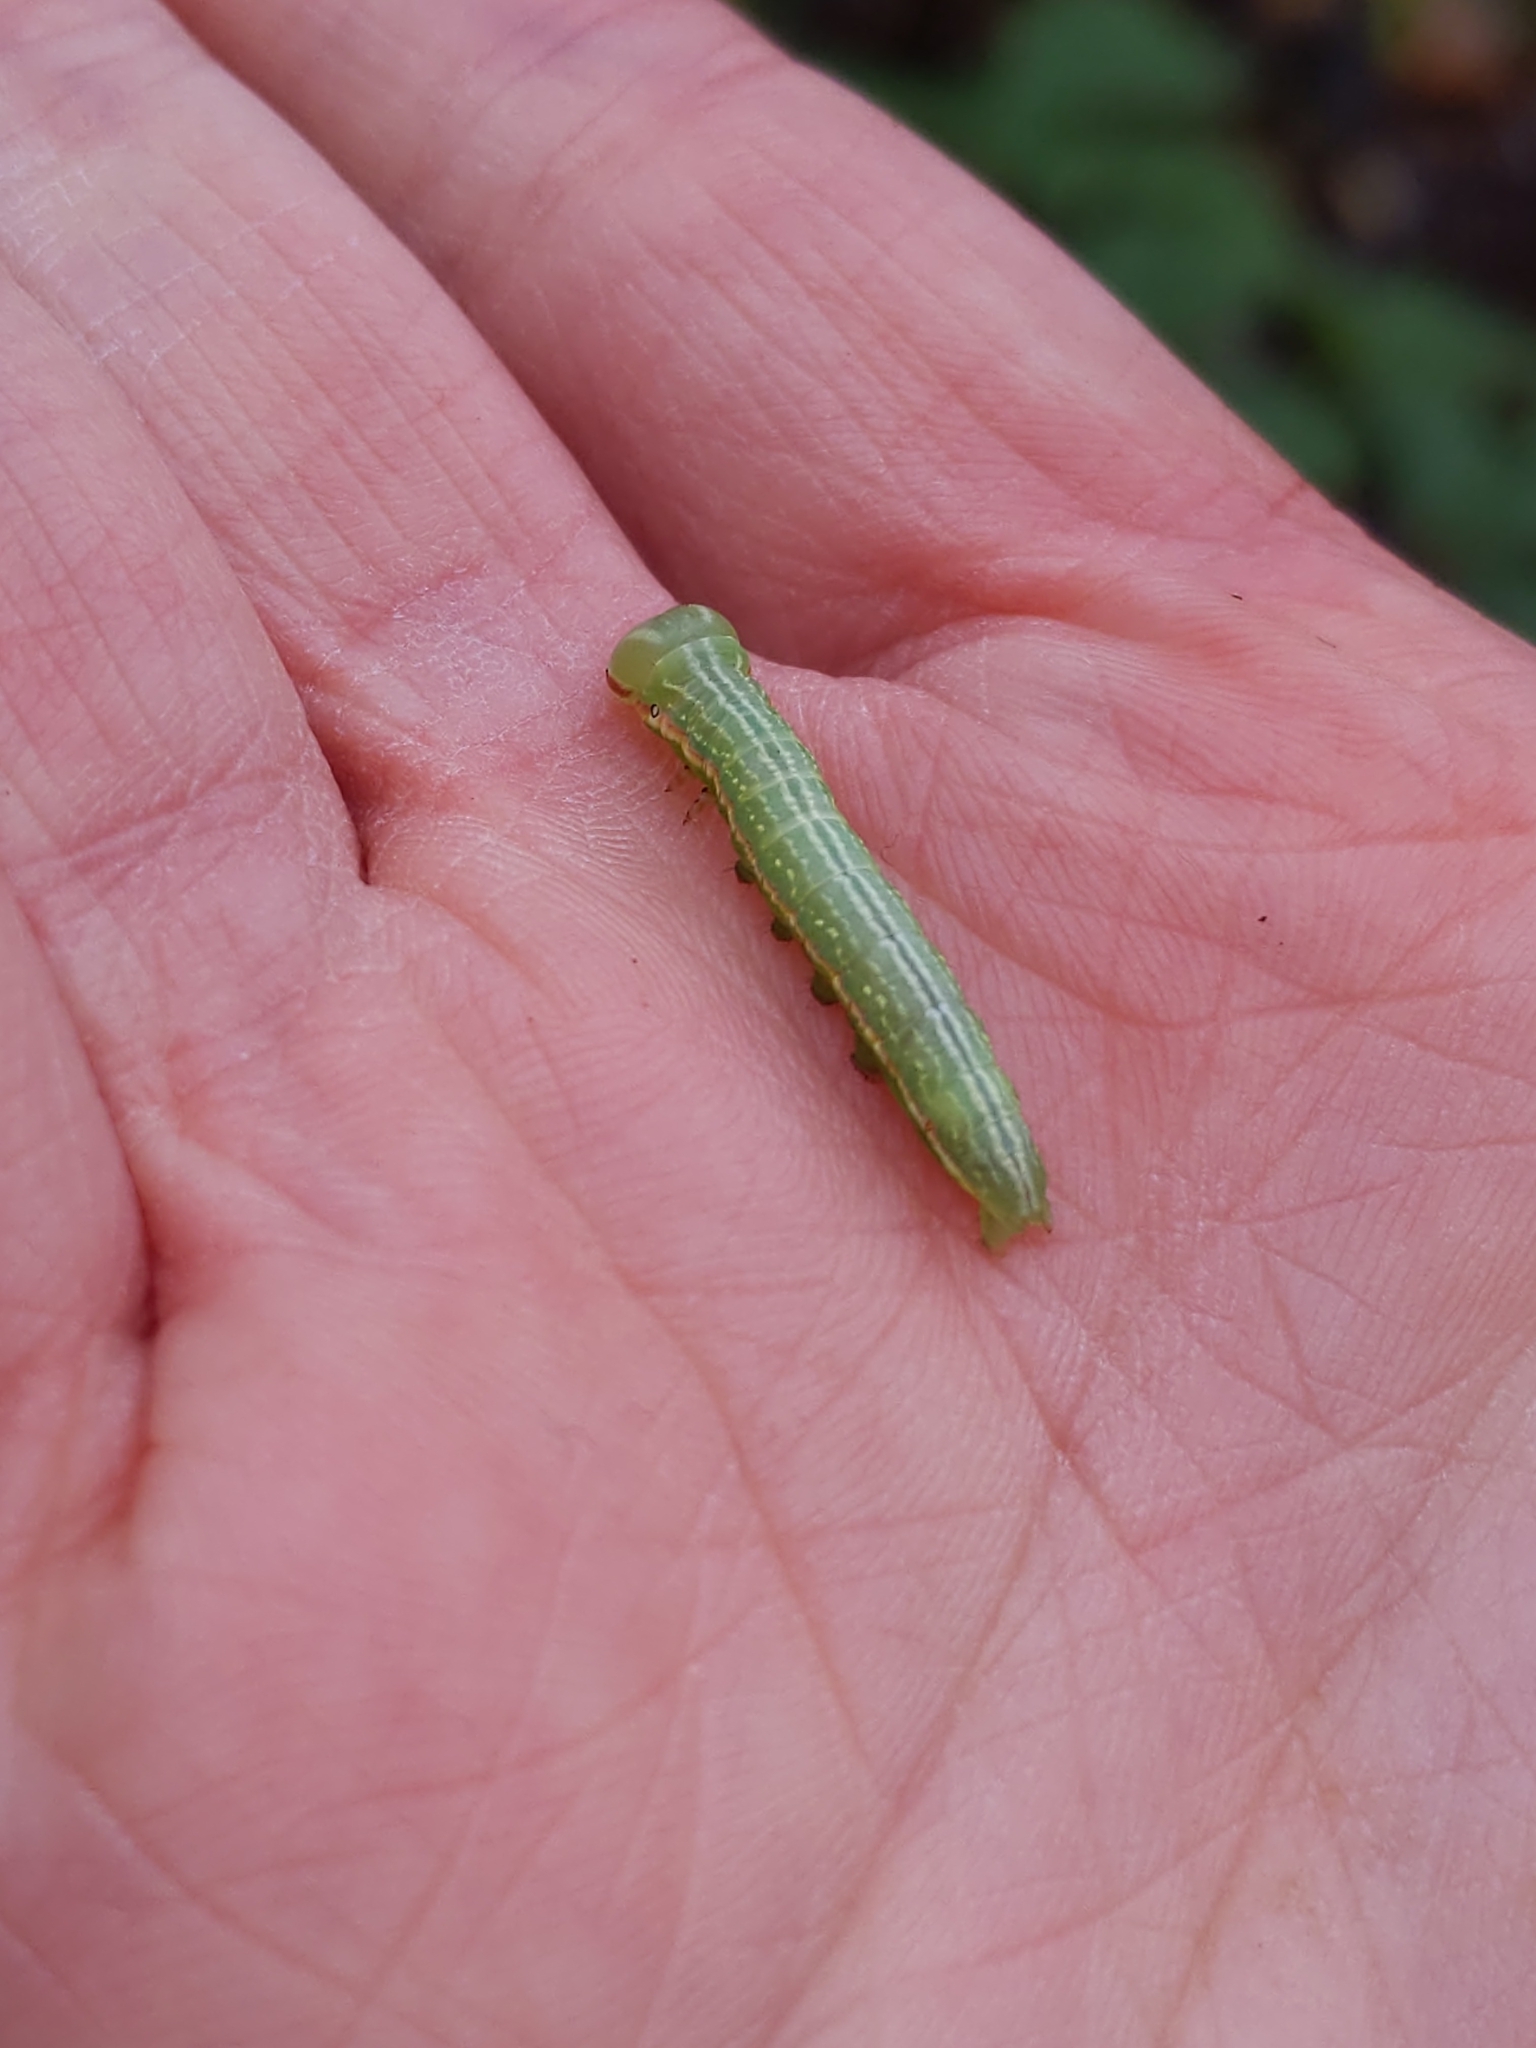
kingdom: Animalia
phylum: Arthropoda
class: Insecta
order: Lepidoptera
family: Notodontidae
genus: Peridea
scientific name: Peridea angulosa
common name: Angulose prominent
